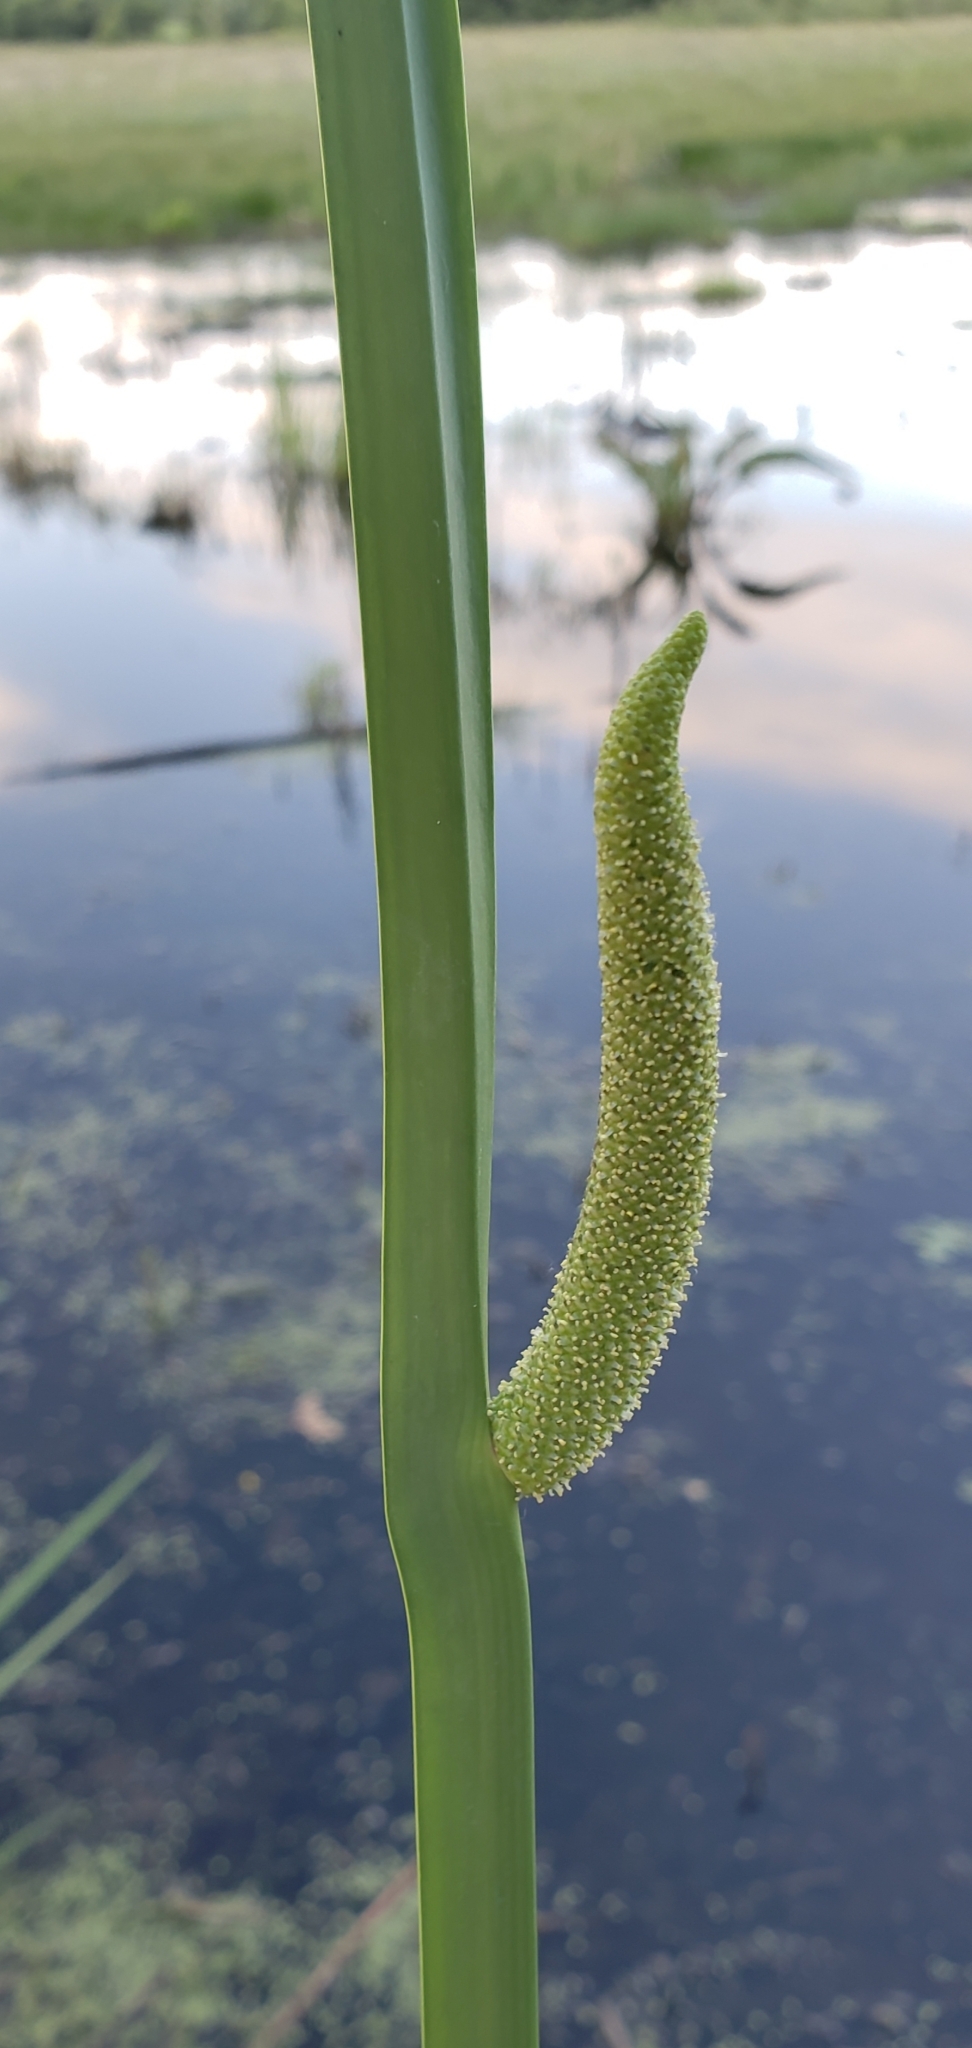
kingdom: Plantae
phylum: Tracheophyta
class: Liliopsida
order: Acorales
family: Acoraceae
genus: Acorus
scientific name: Acorus calamus
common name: Sweet-flag
